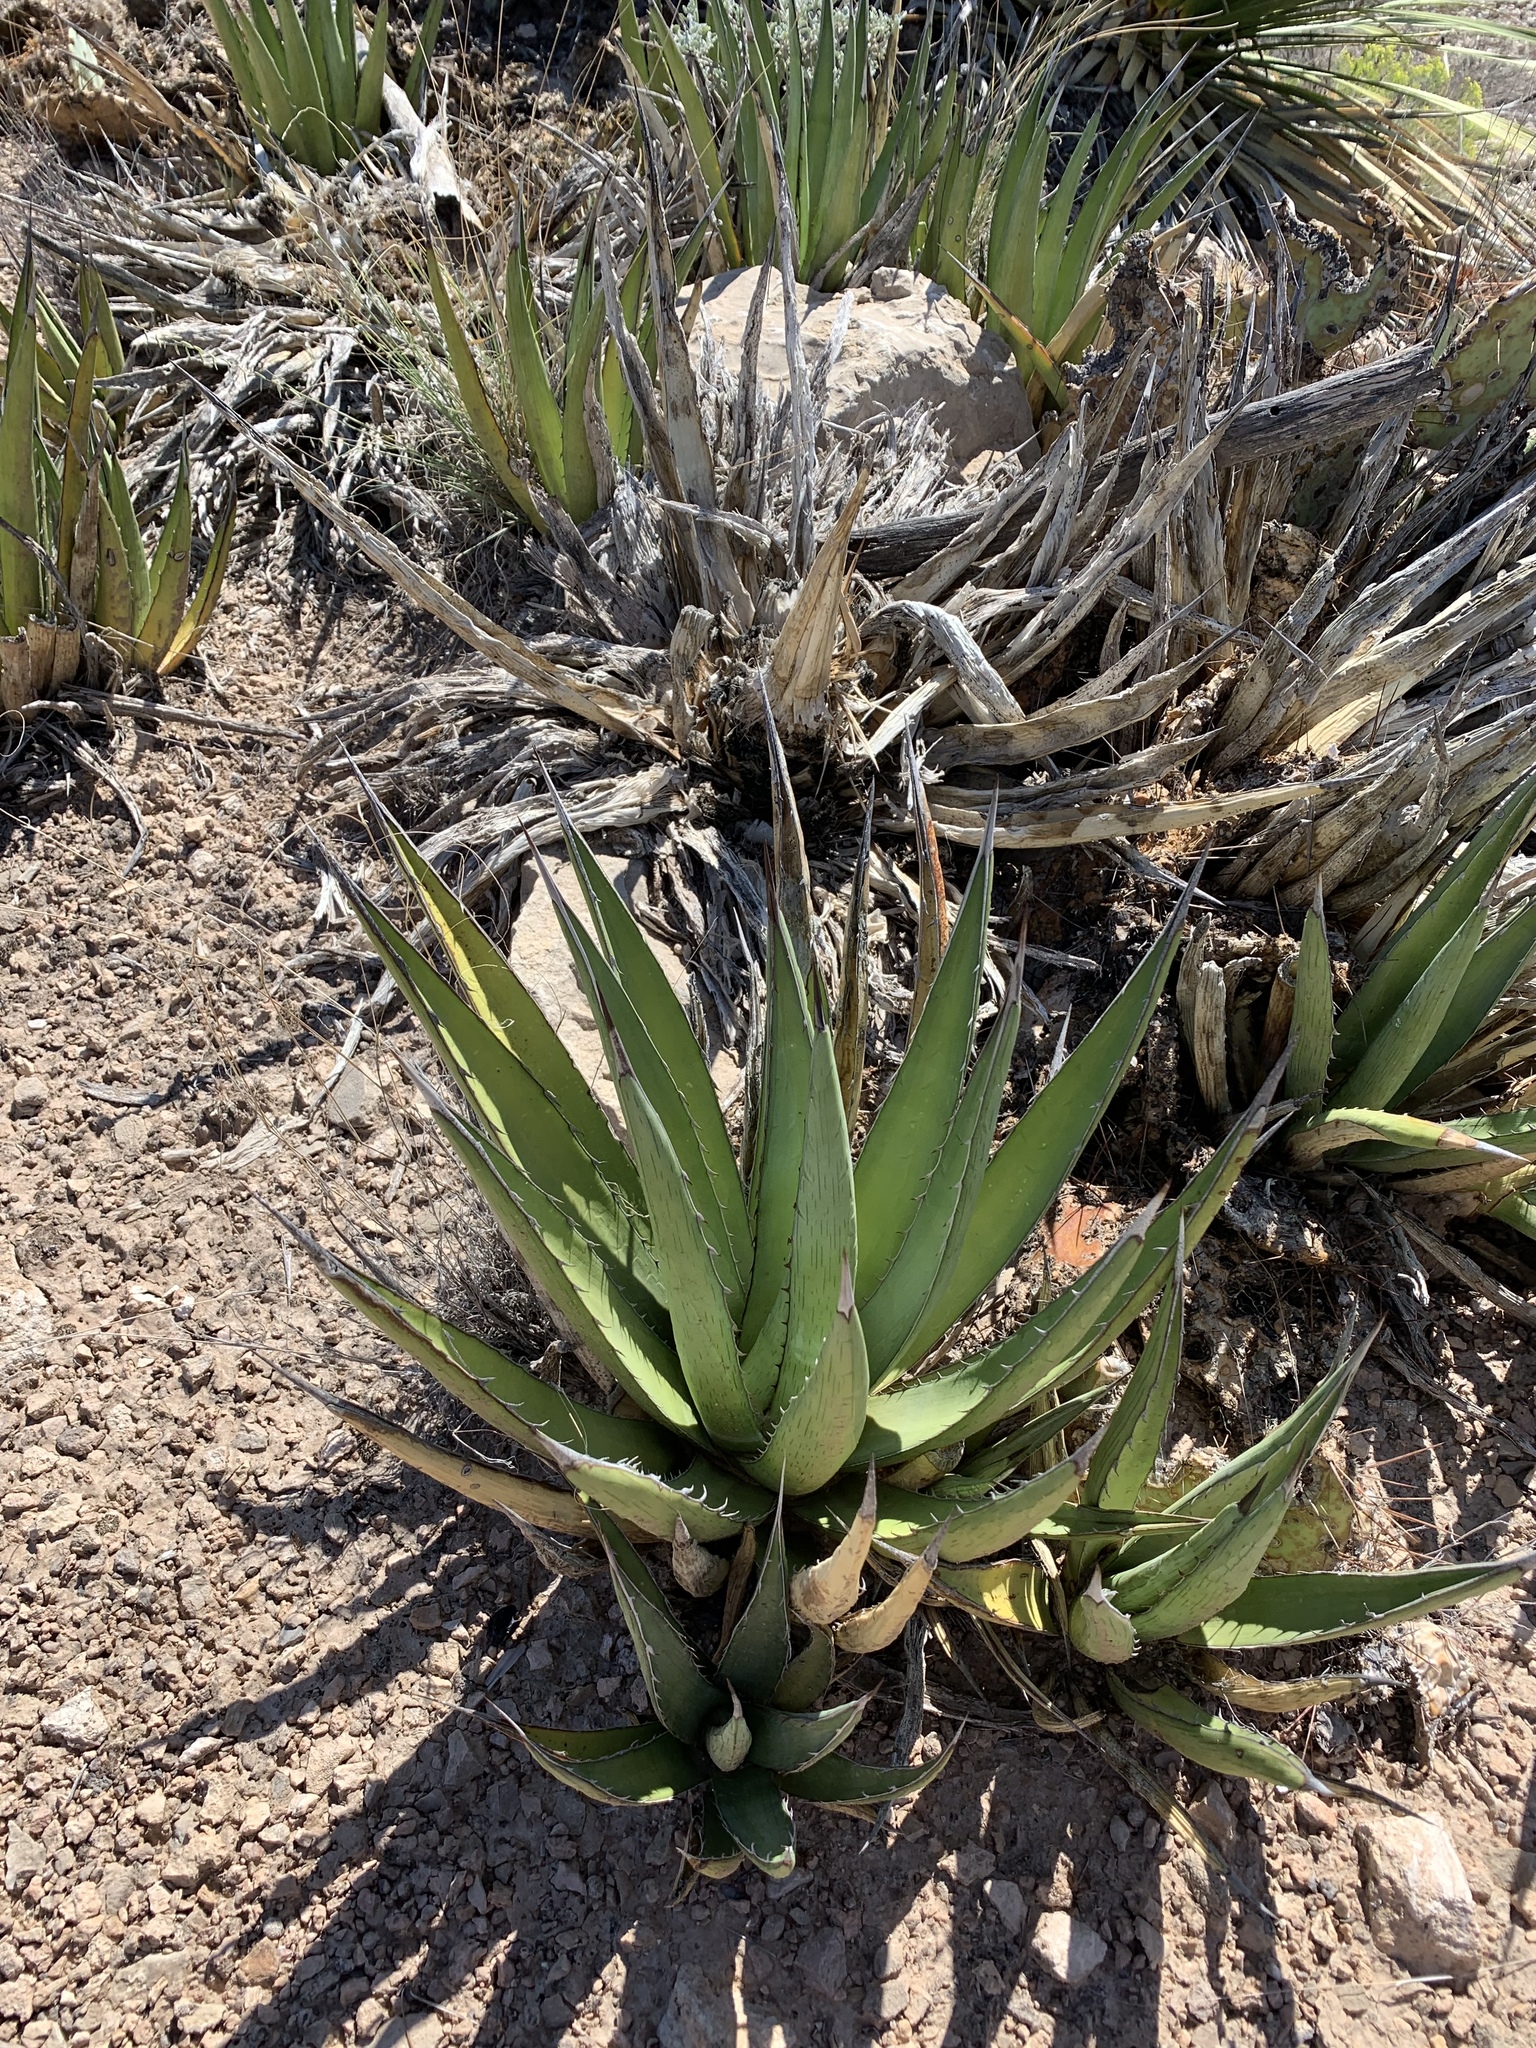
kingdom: Plantae
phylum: Tracheophyta
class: Liliopsida
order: Asparagales
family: Asparagaceae
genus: Agave
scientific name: Agave lechuguilla
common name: Lecheguilla agave
